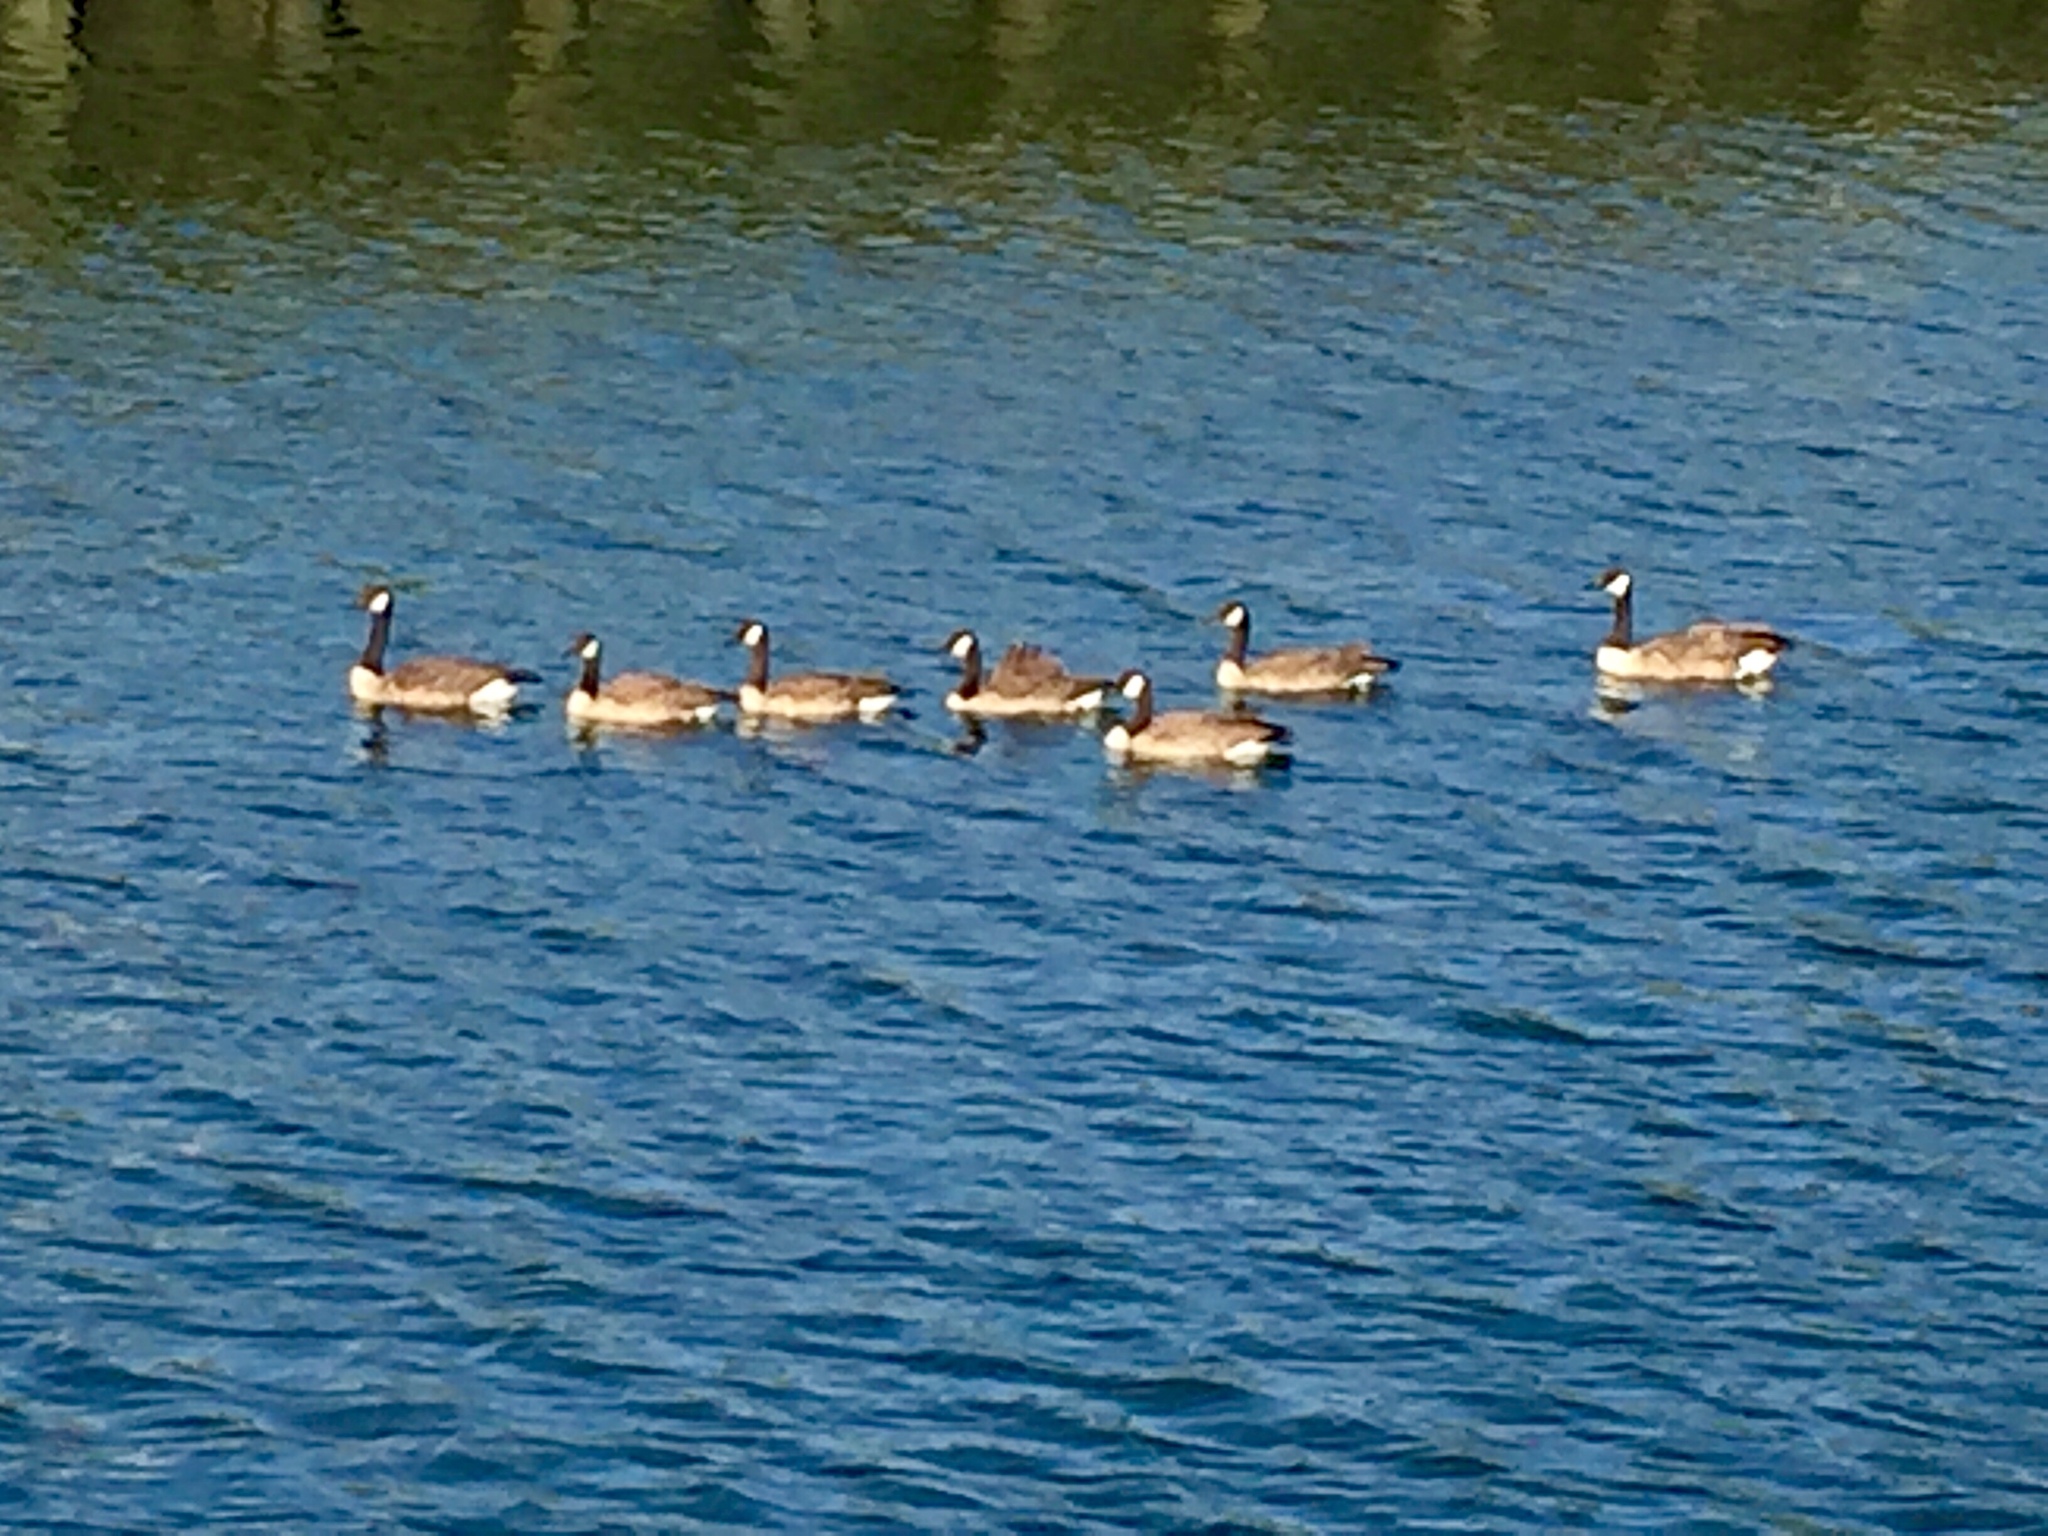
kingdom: Animalia
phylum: Chordata
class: Aves
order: Anseriformes
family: Anatidae
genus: Branta
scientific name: Branta canadensis
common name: Canada goose
